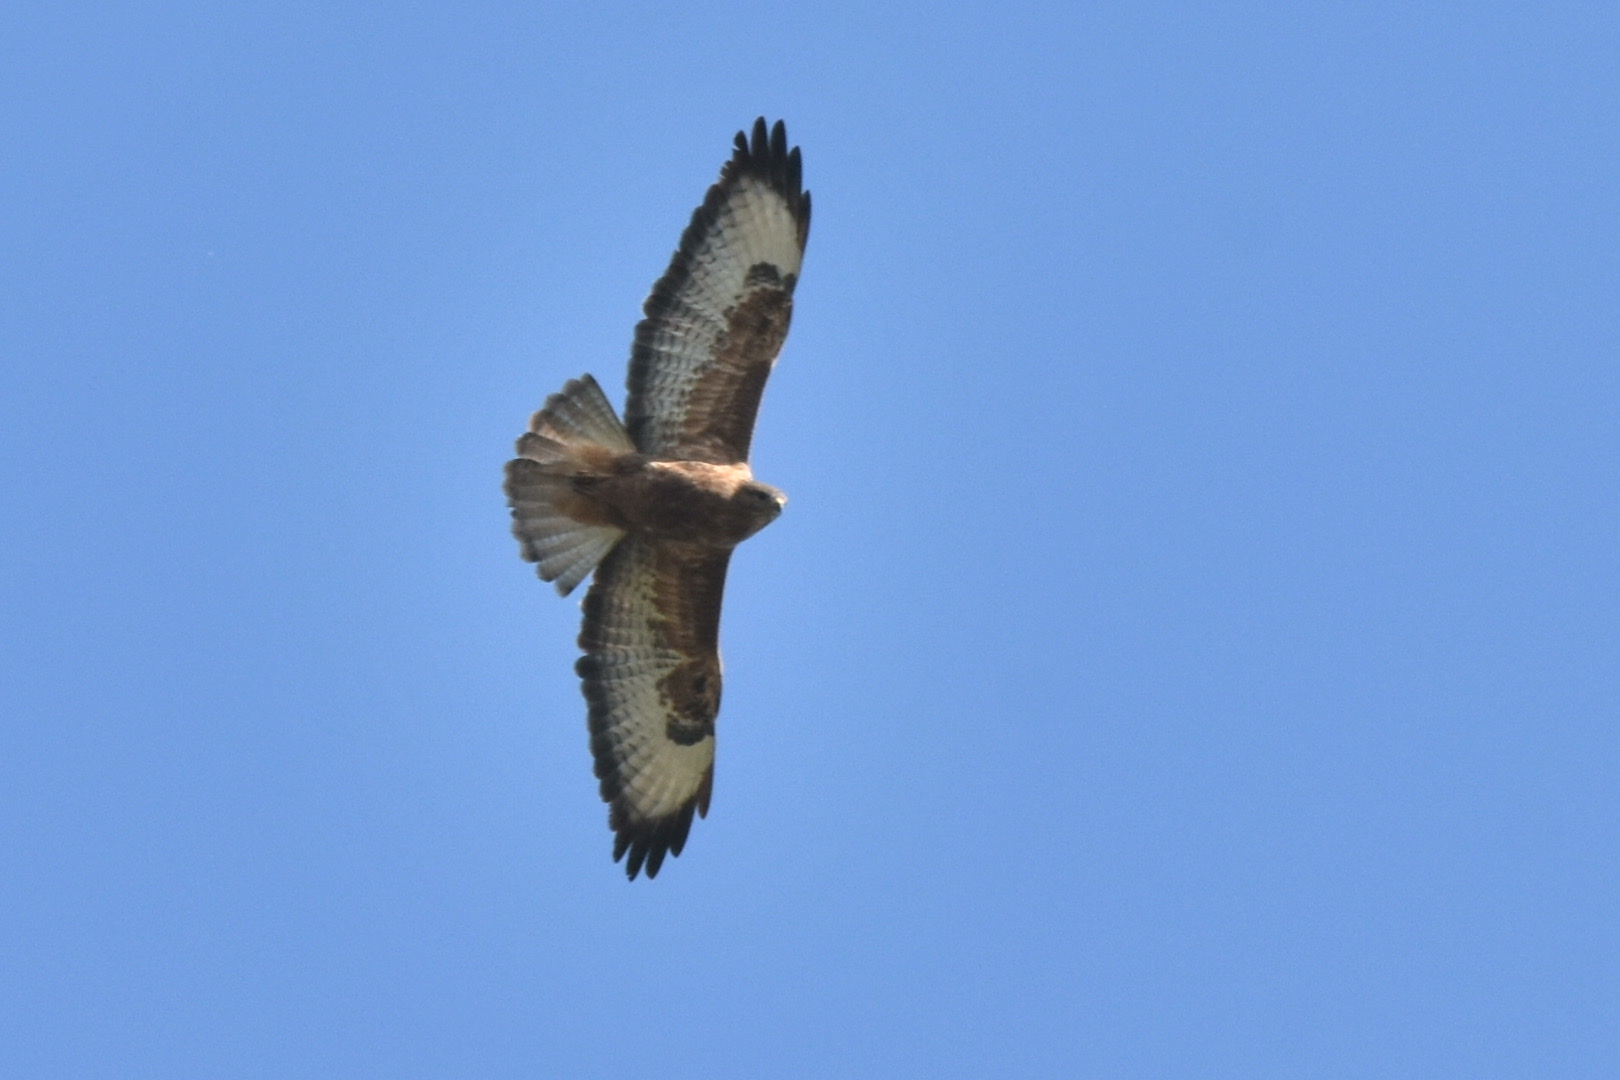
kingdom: Animalia
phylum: Chordata
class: Aves
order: Accipitriformes
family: Accipitridae
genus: Buteo
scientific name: Buteo buteo
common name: Common buzzard
